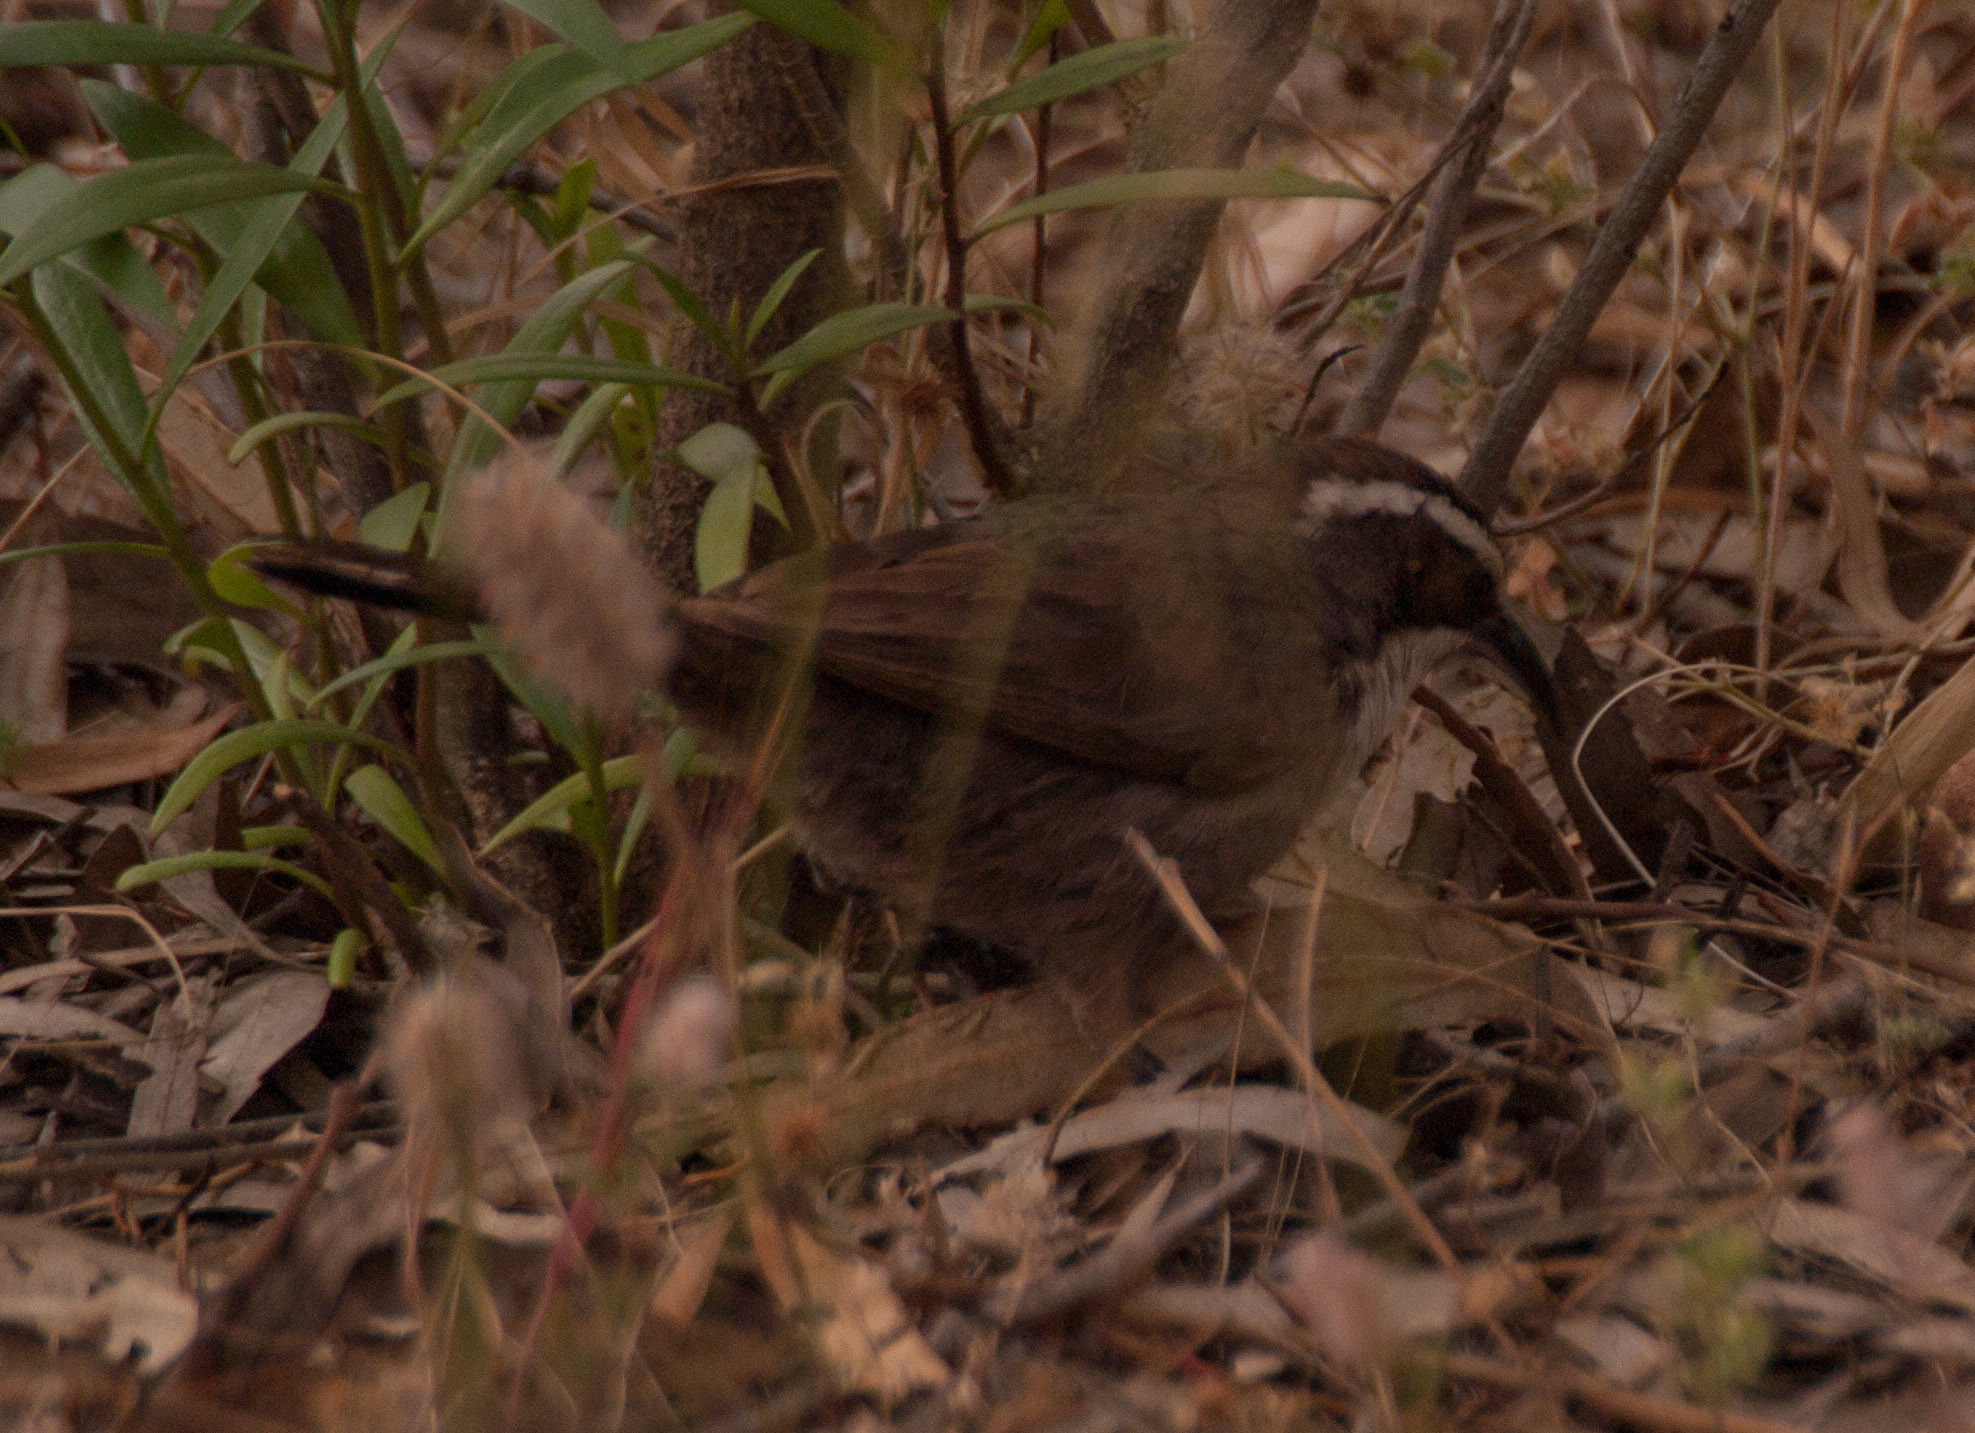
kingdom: Animalia
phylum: Chordata
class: Aves
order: Passeriformes
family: Pomatostomidae
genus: Pomatostomus
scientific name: Pomatostomus superciliosus
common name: White-browed babbler
